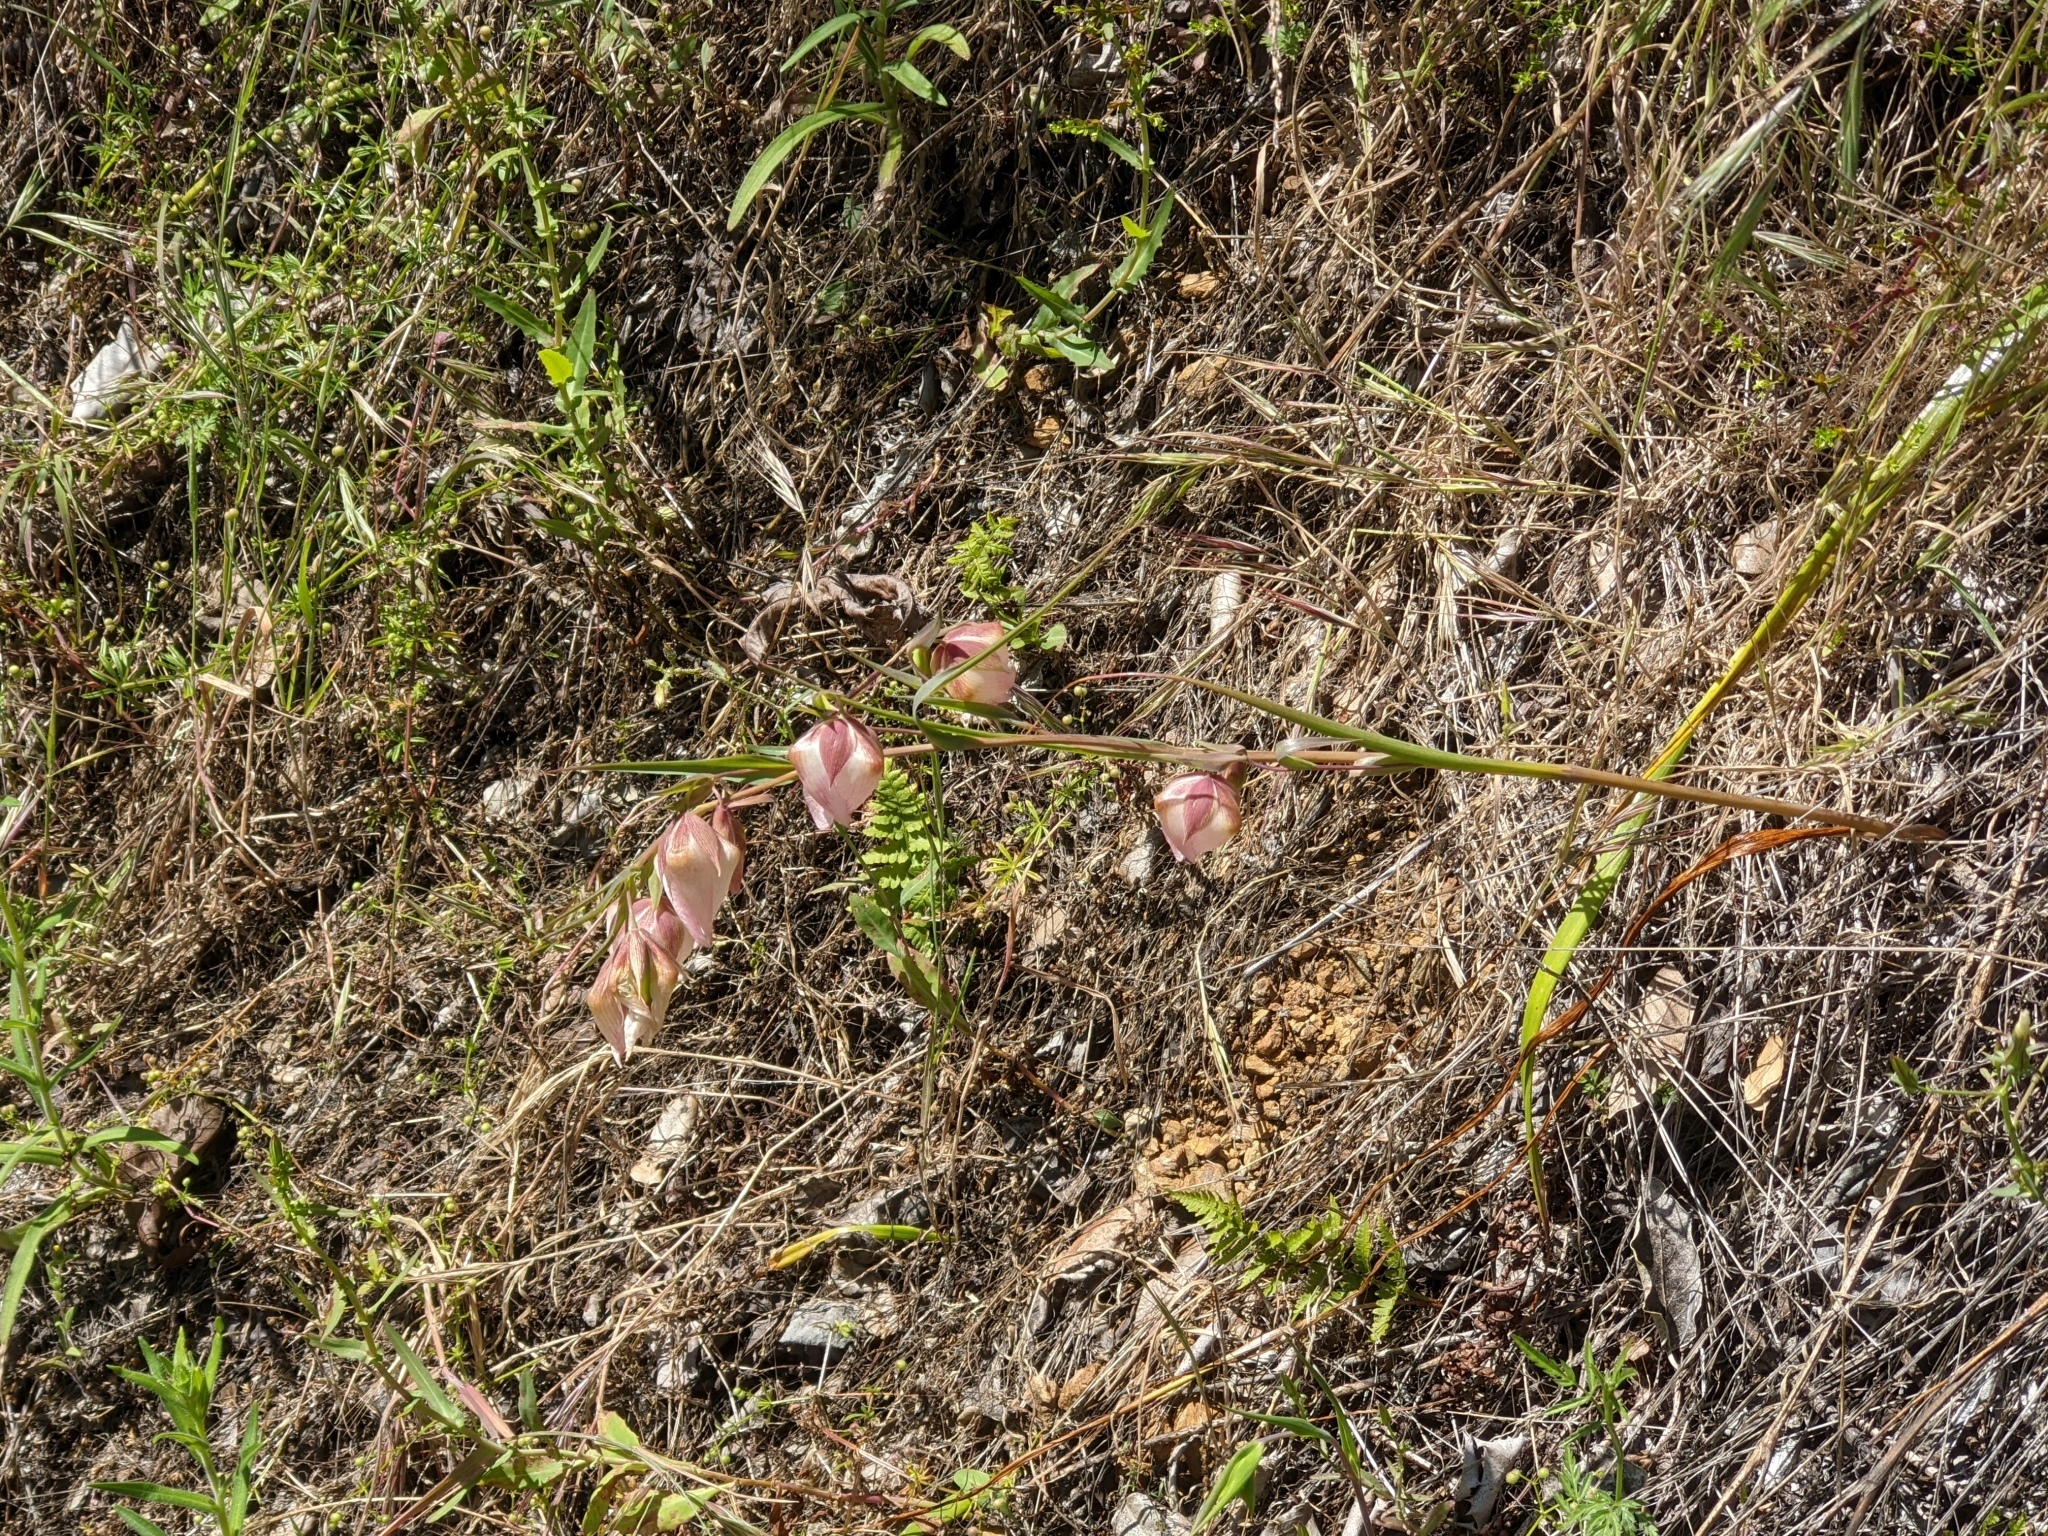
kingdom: Plantae
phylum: Tracheophyta
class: Liliopsida
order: Liliales
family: Liliaceae
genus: Calochortus
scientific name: Calochortus albus
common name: Fairy-lantern
